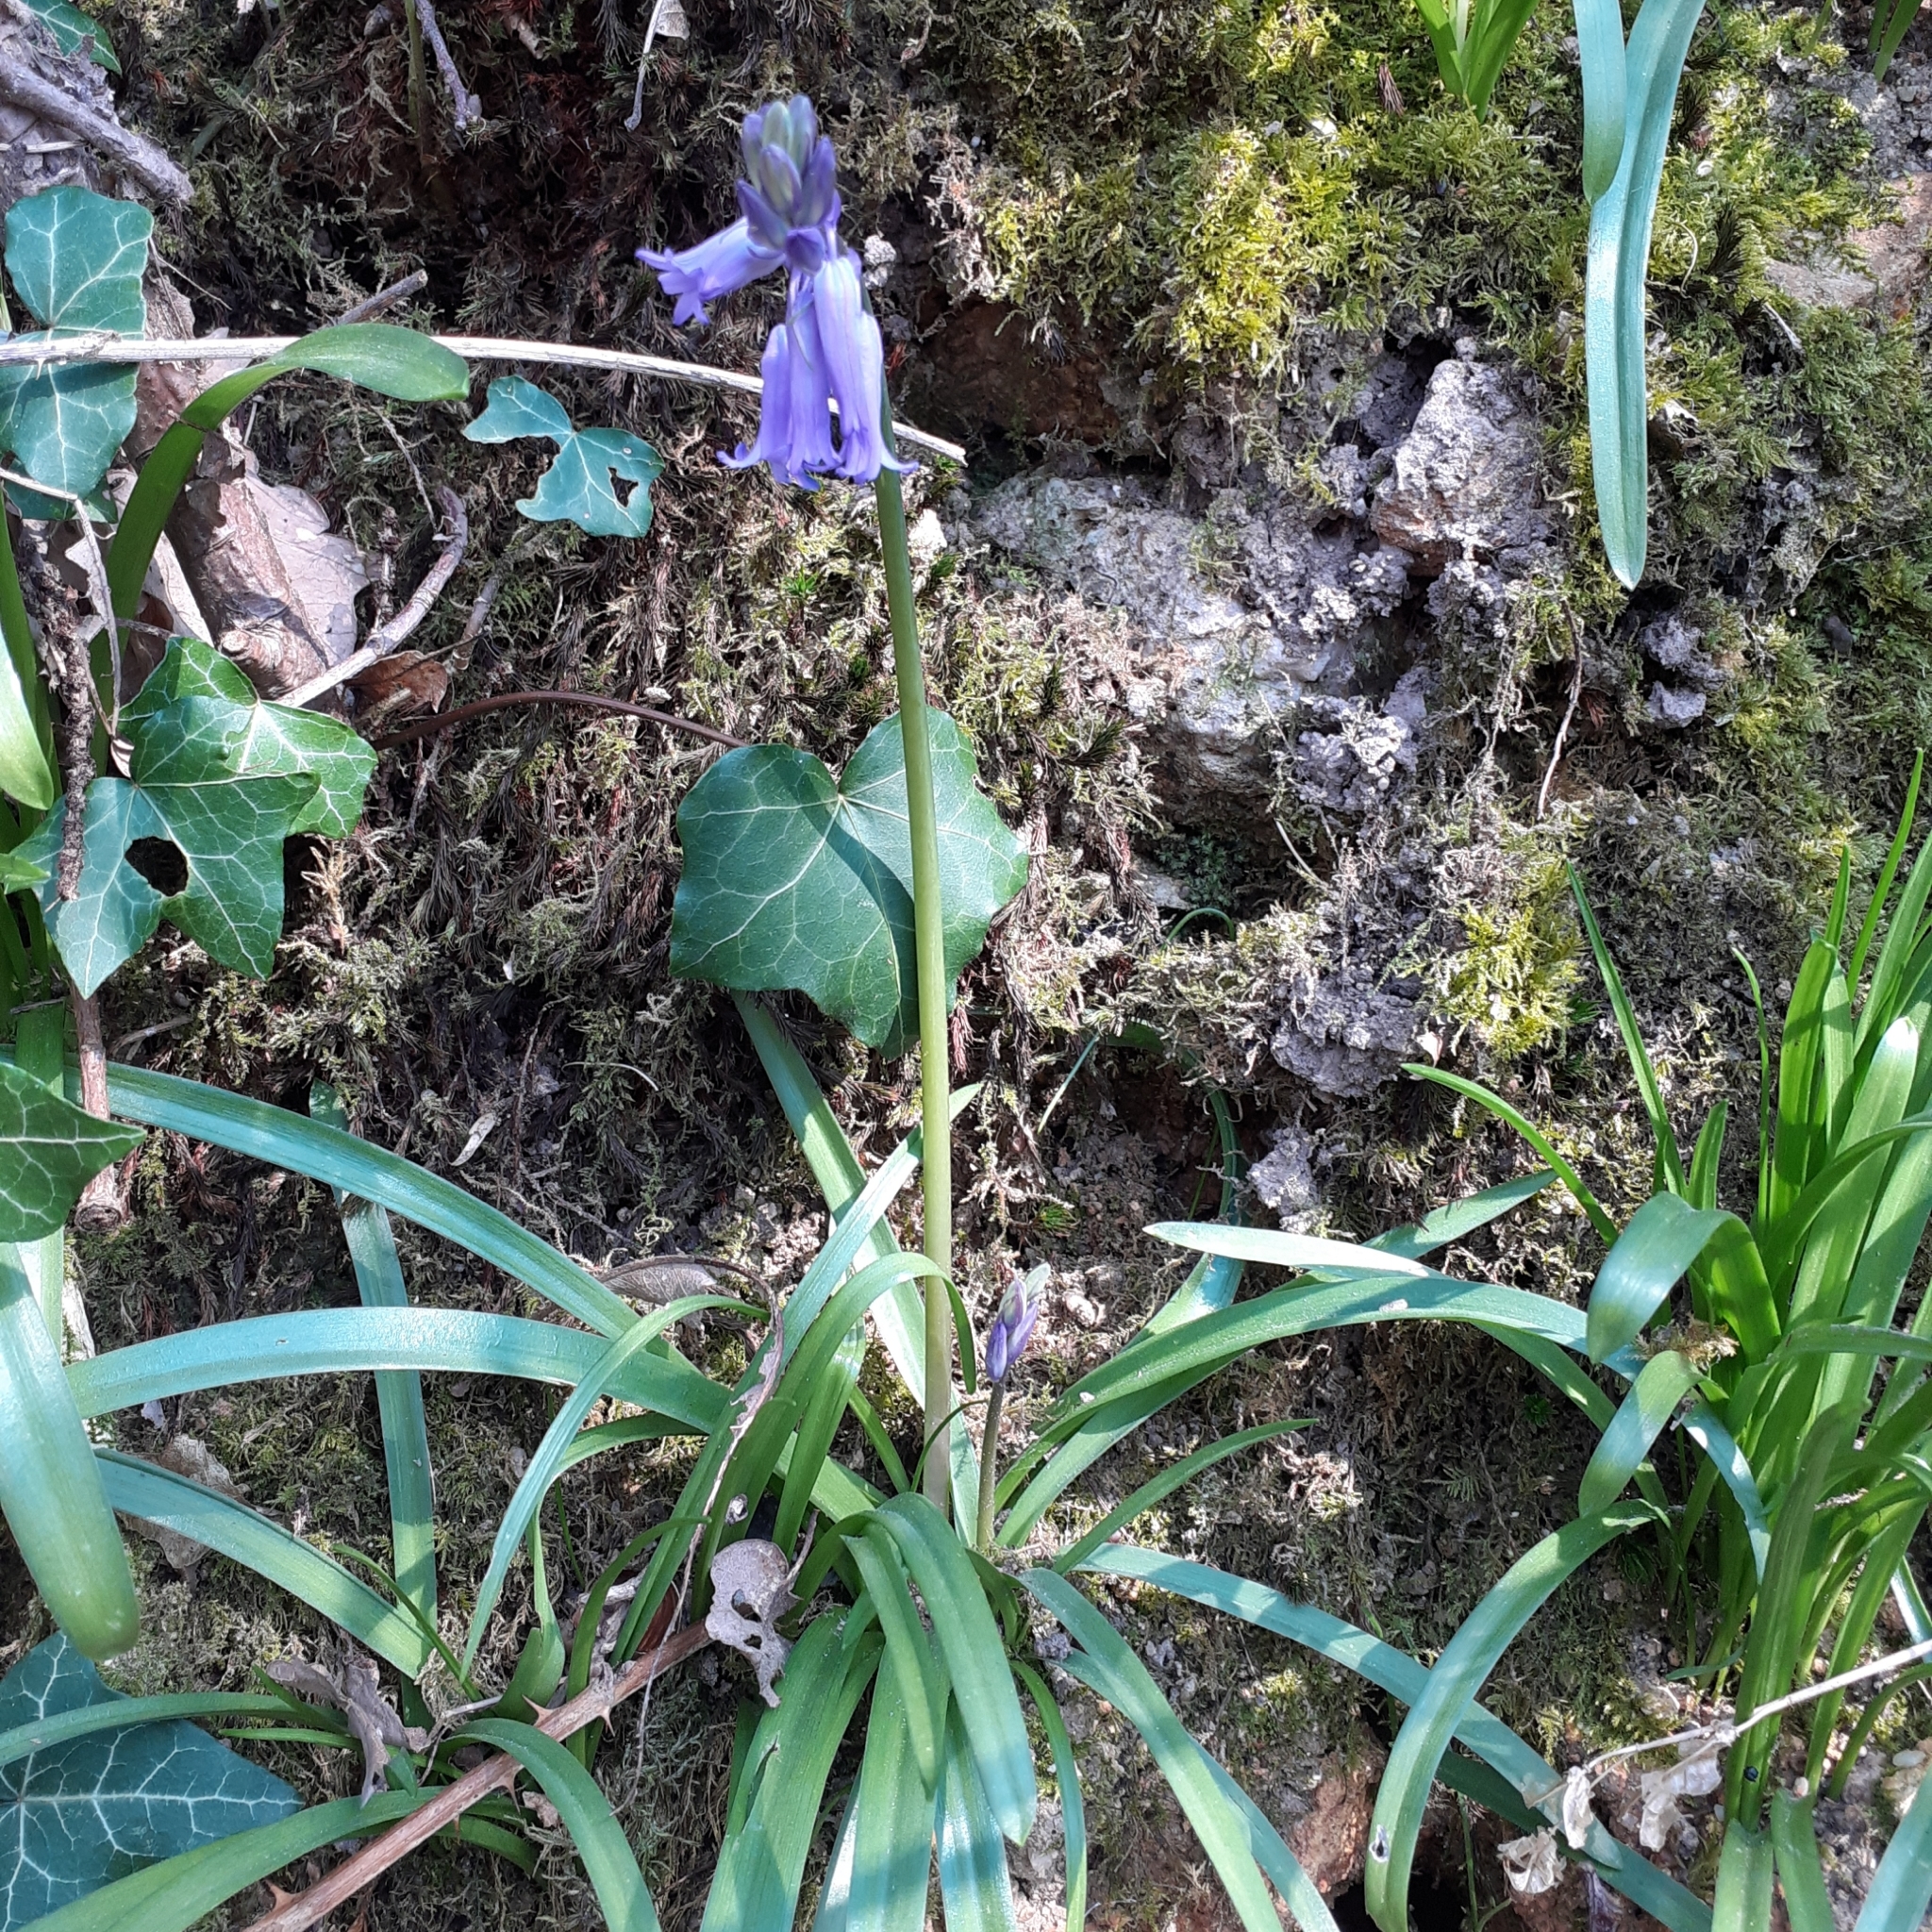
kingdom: Plantae
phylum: Tracheophyta
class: Liliopsida
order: Asparagales
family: Asparagaceae
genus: Hyacinthoides
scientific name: Hyacinthoides non-scripta
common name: Bluebell
